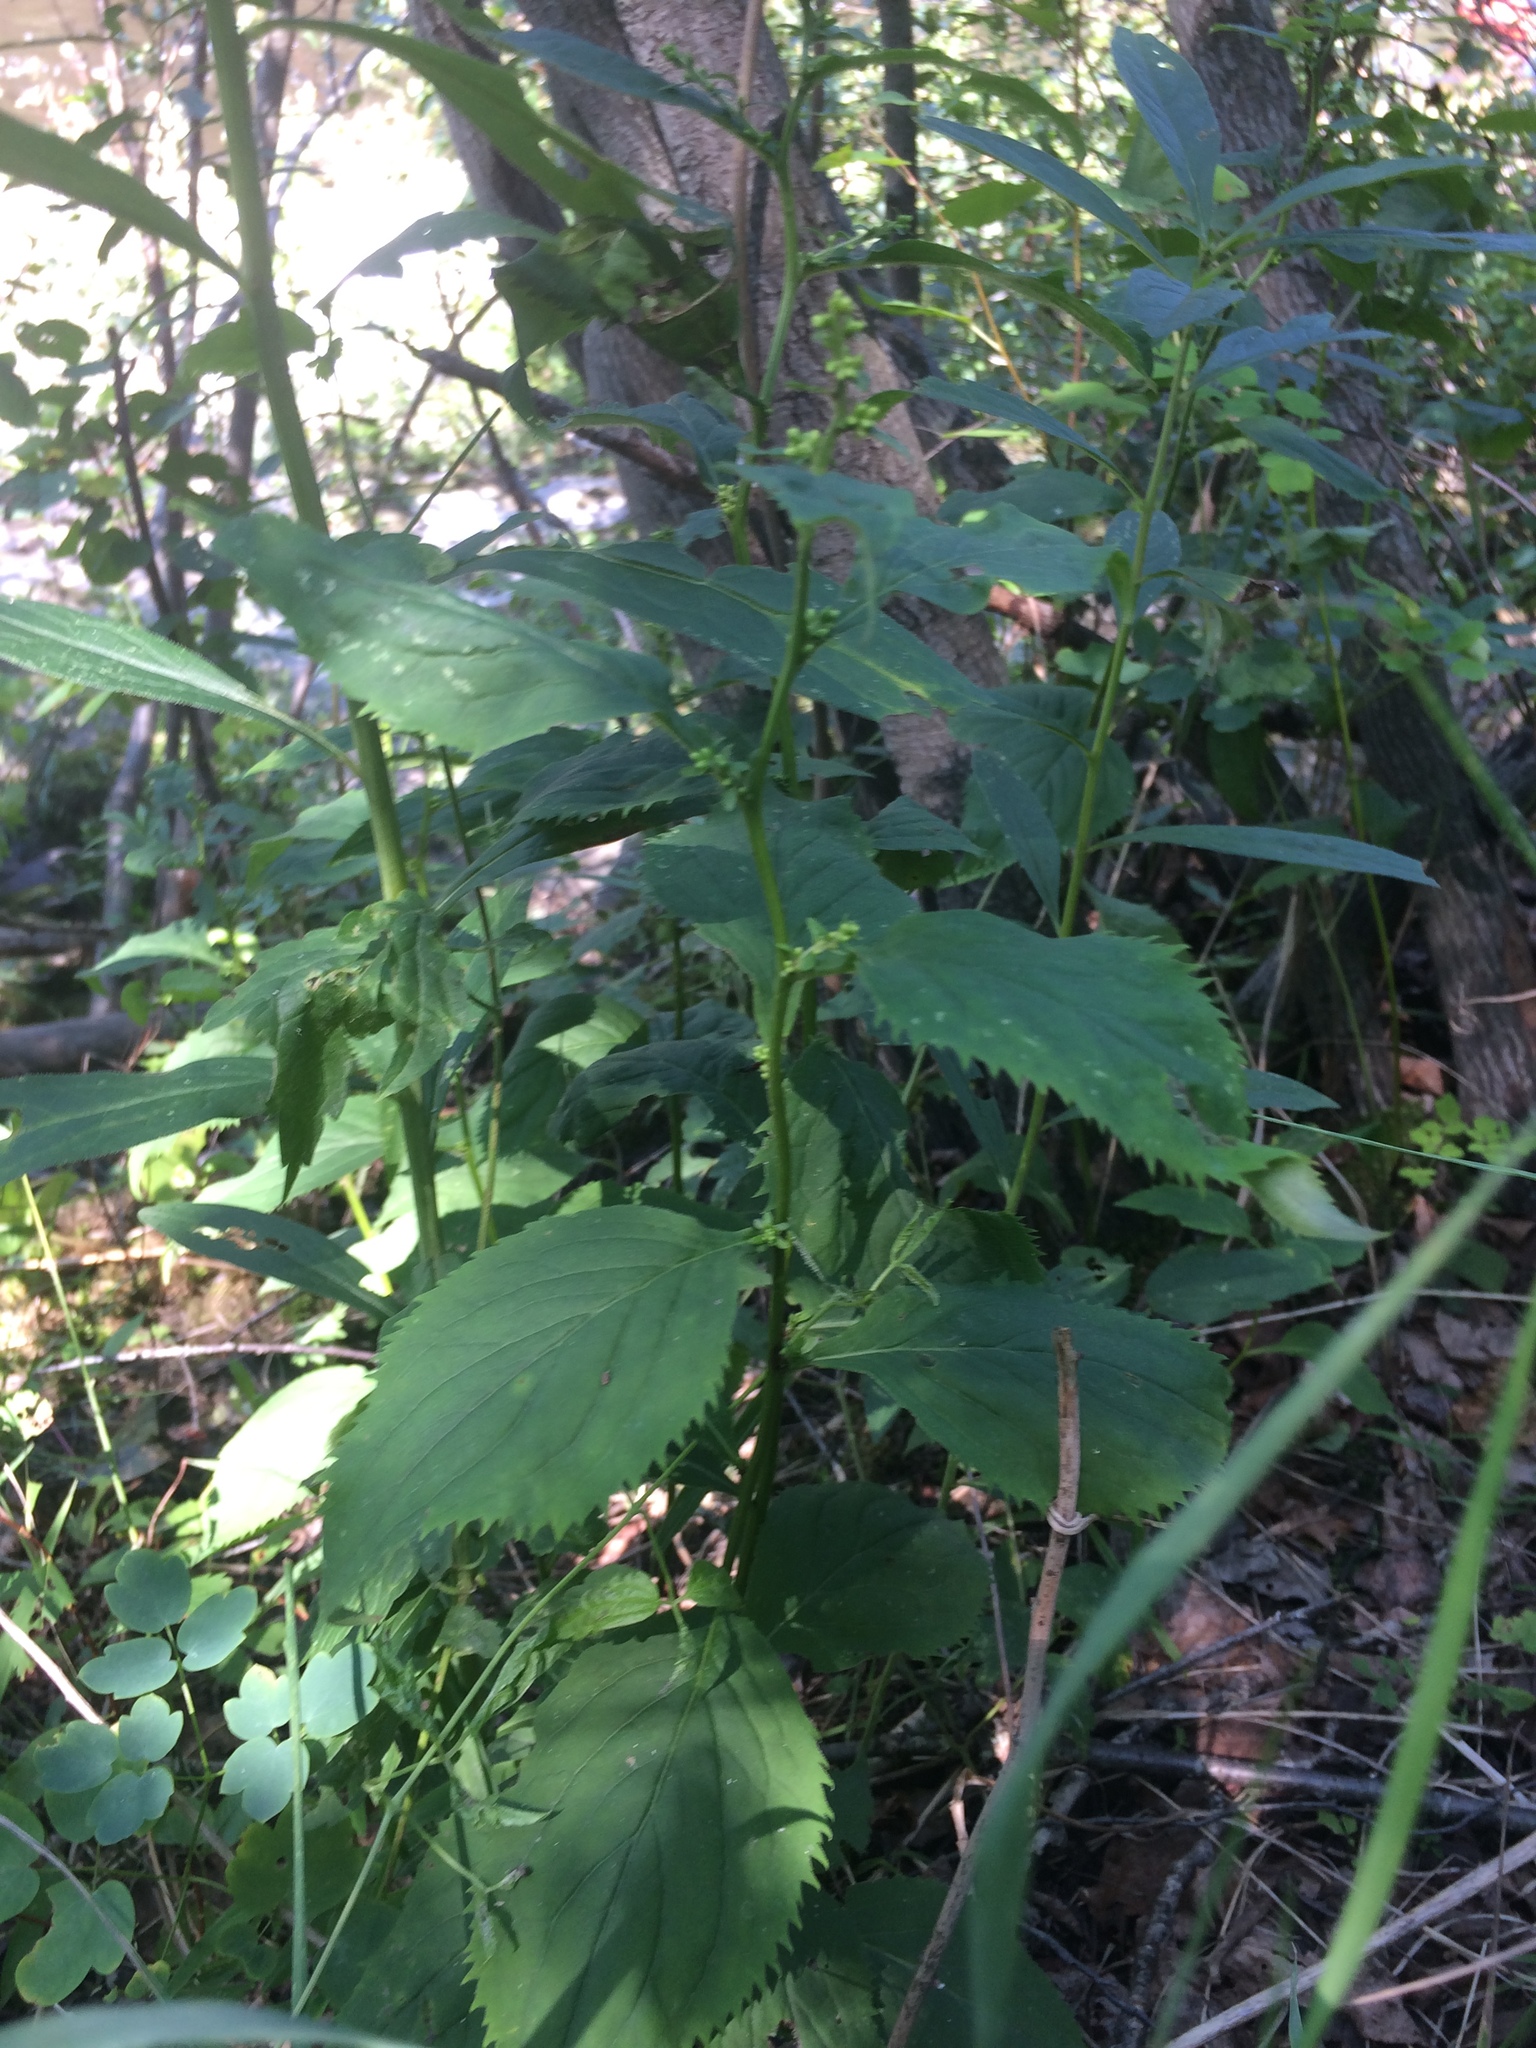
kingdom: Plantae
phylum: Tracheophyta
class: Magnoliopsida
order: Asterales
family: Asteraceae
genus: Solidago
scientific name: Solidago flexicaulis
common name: Zig-zag goldenrod
